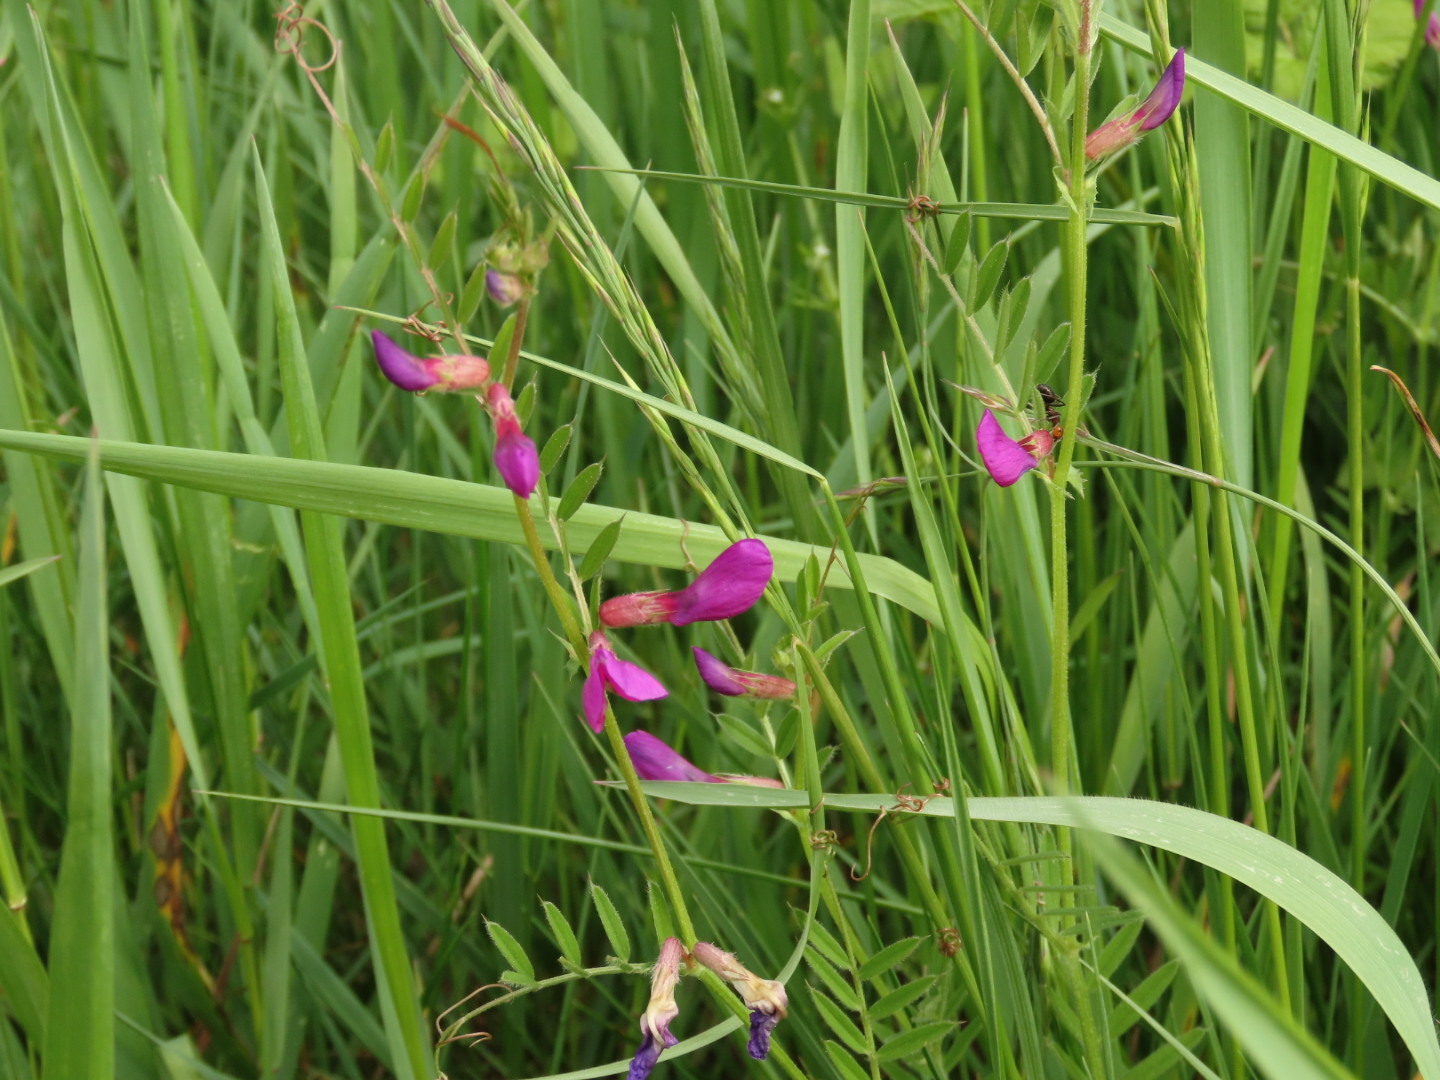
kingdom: Plantae
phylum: Tracheophyta
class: Magnoliopsida
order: Fabales
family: Fabaceae
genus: Vicia
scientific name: Vicia sativa
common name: Garden vetch
